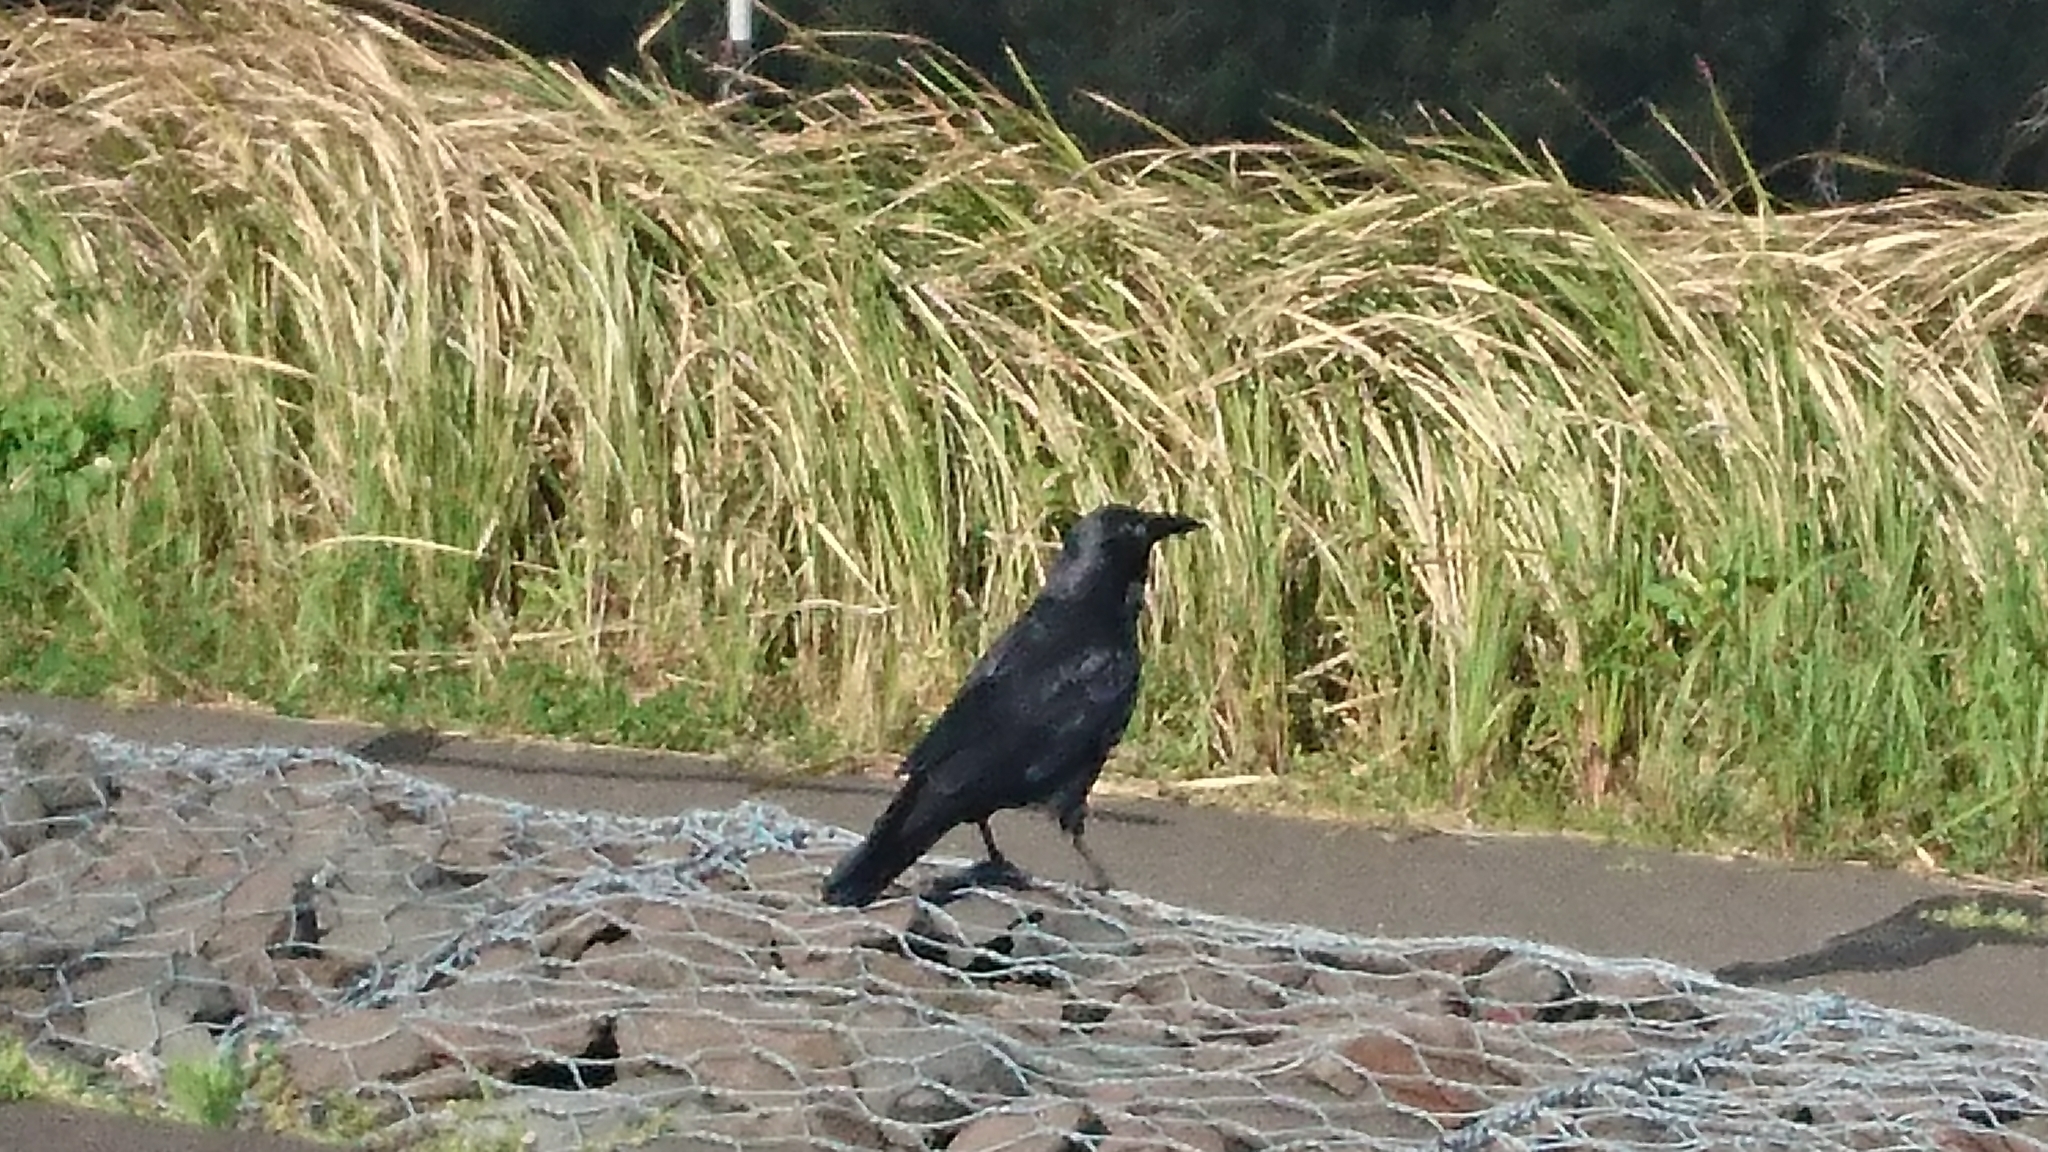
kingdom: Animalia
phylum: Chordata
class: Aves
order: Passeriformes
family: Corvidae
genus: Corvus
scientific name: Corvus coronoides
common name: Australian raven
